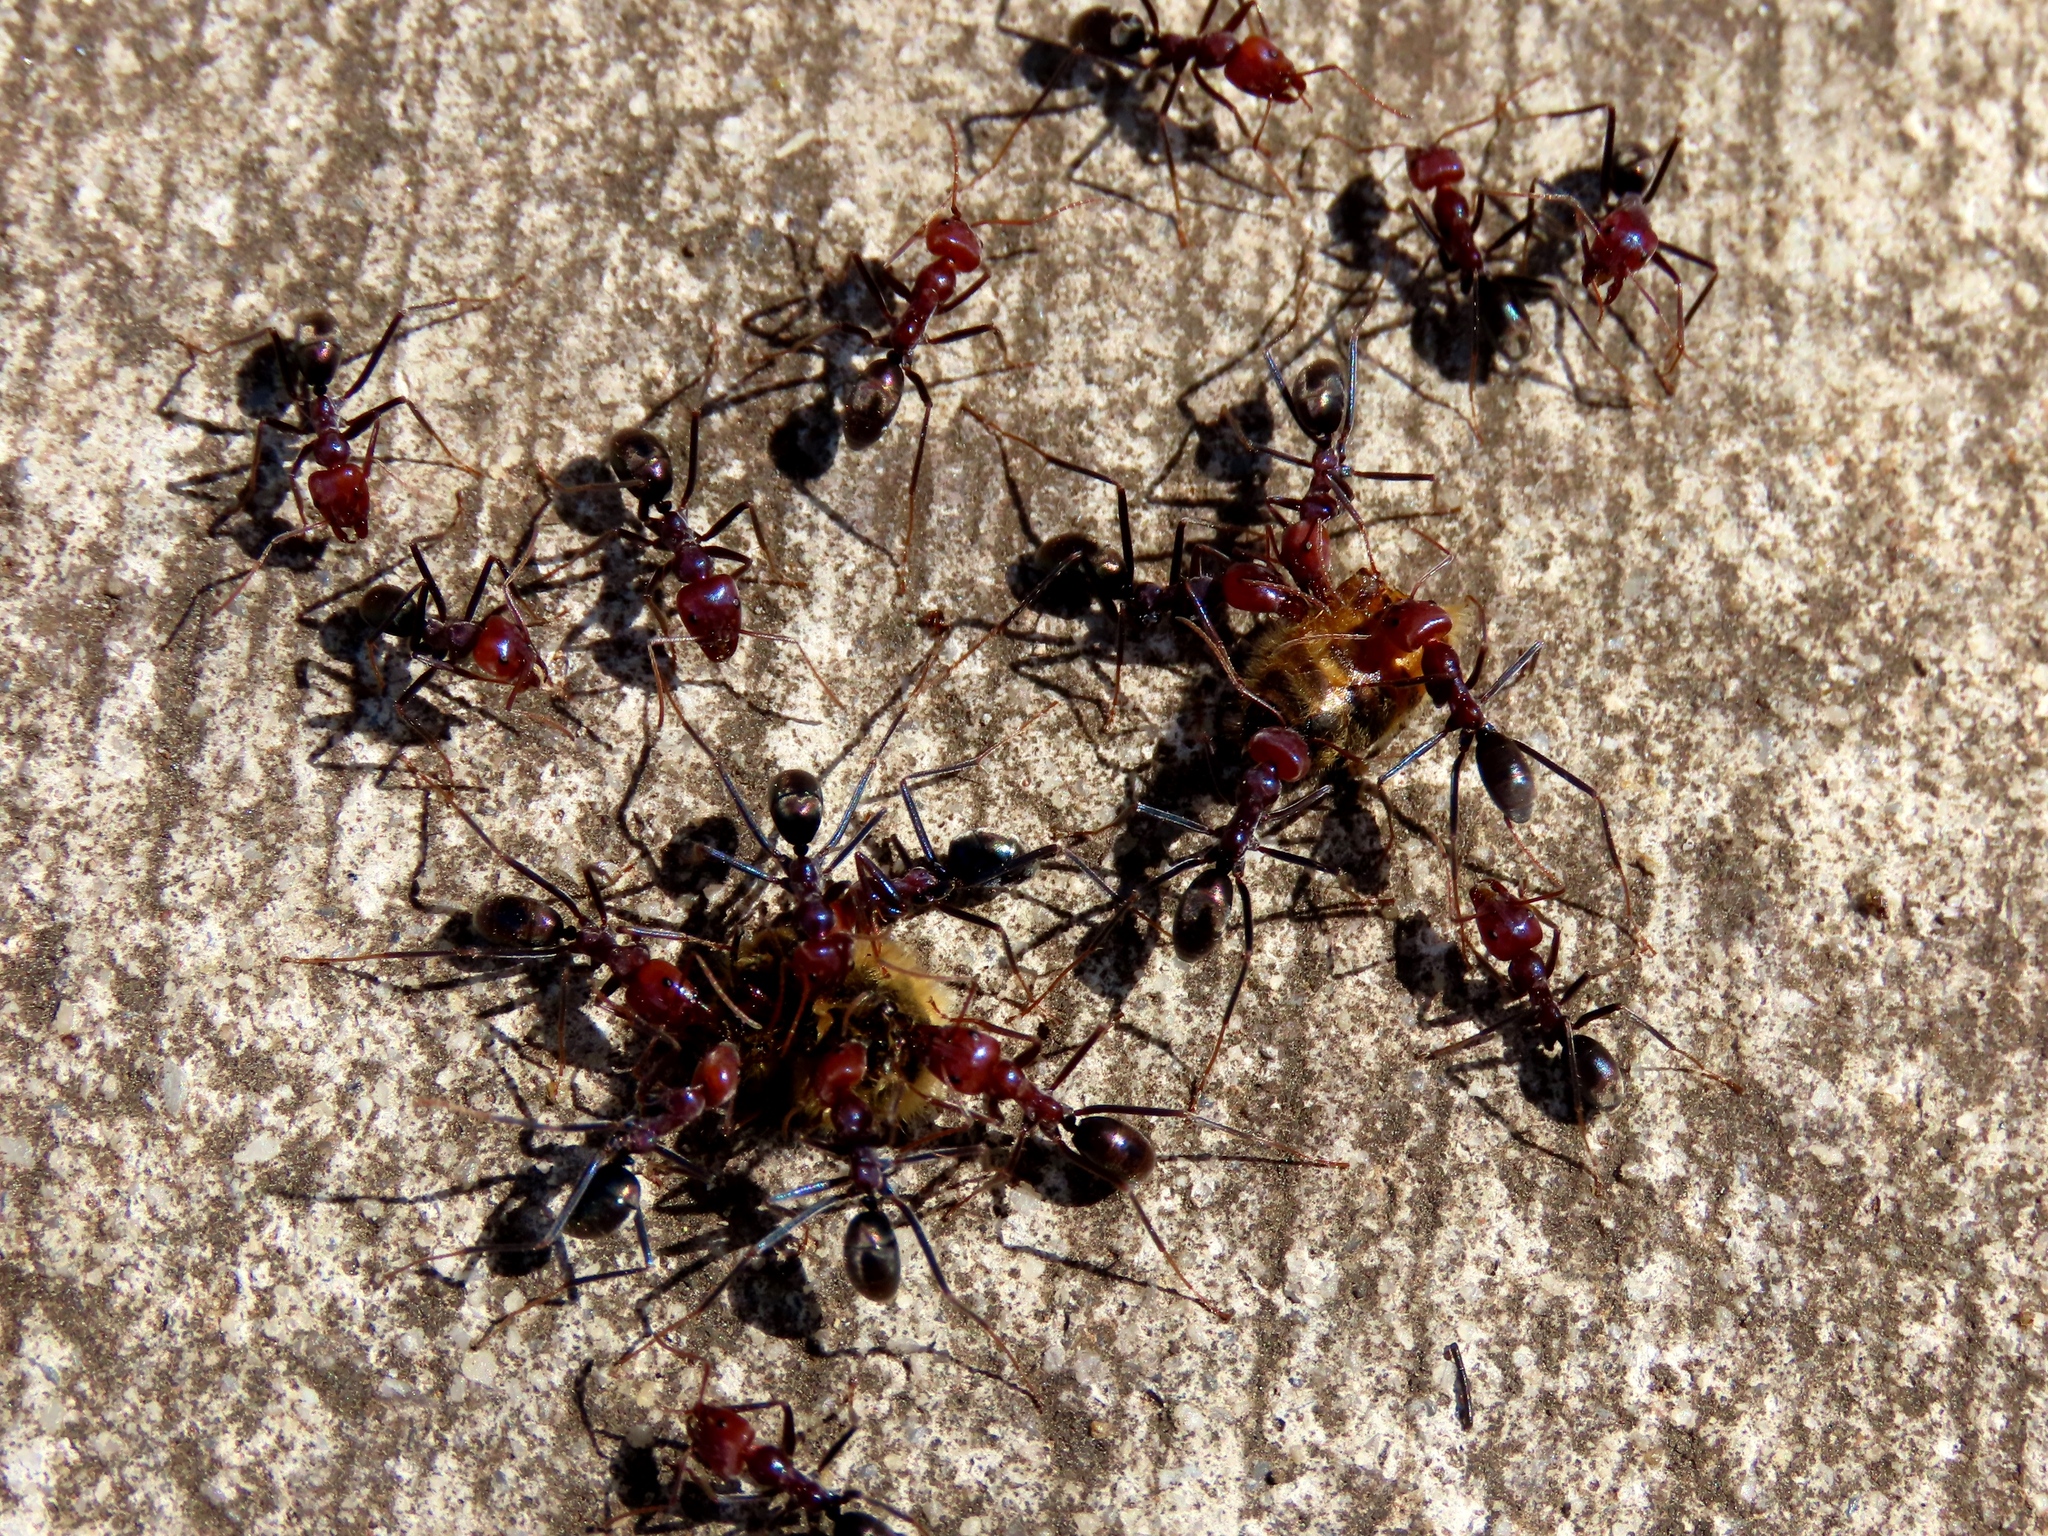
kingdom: Animalia
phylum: Arthropoda
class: Insecta
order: Hymenoptera
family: Formicidae
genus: Iridomyrmex
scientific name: Iridomyrmex purpureus
